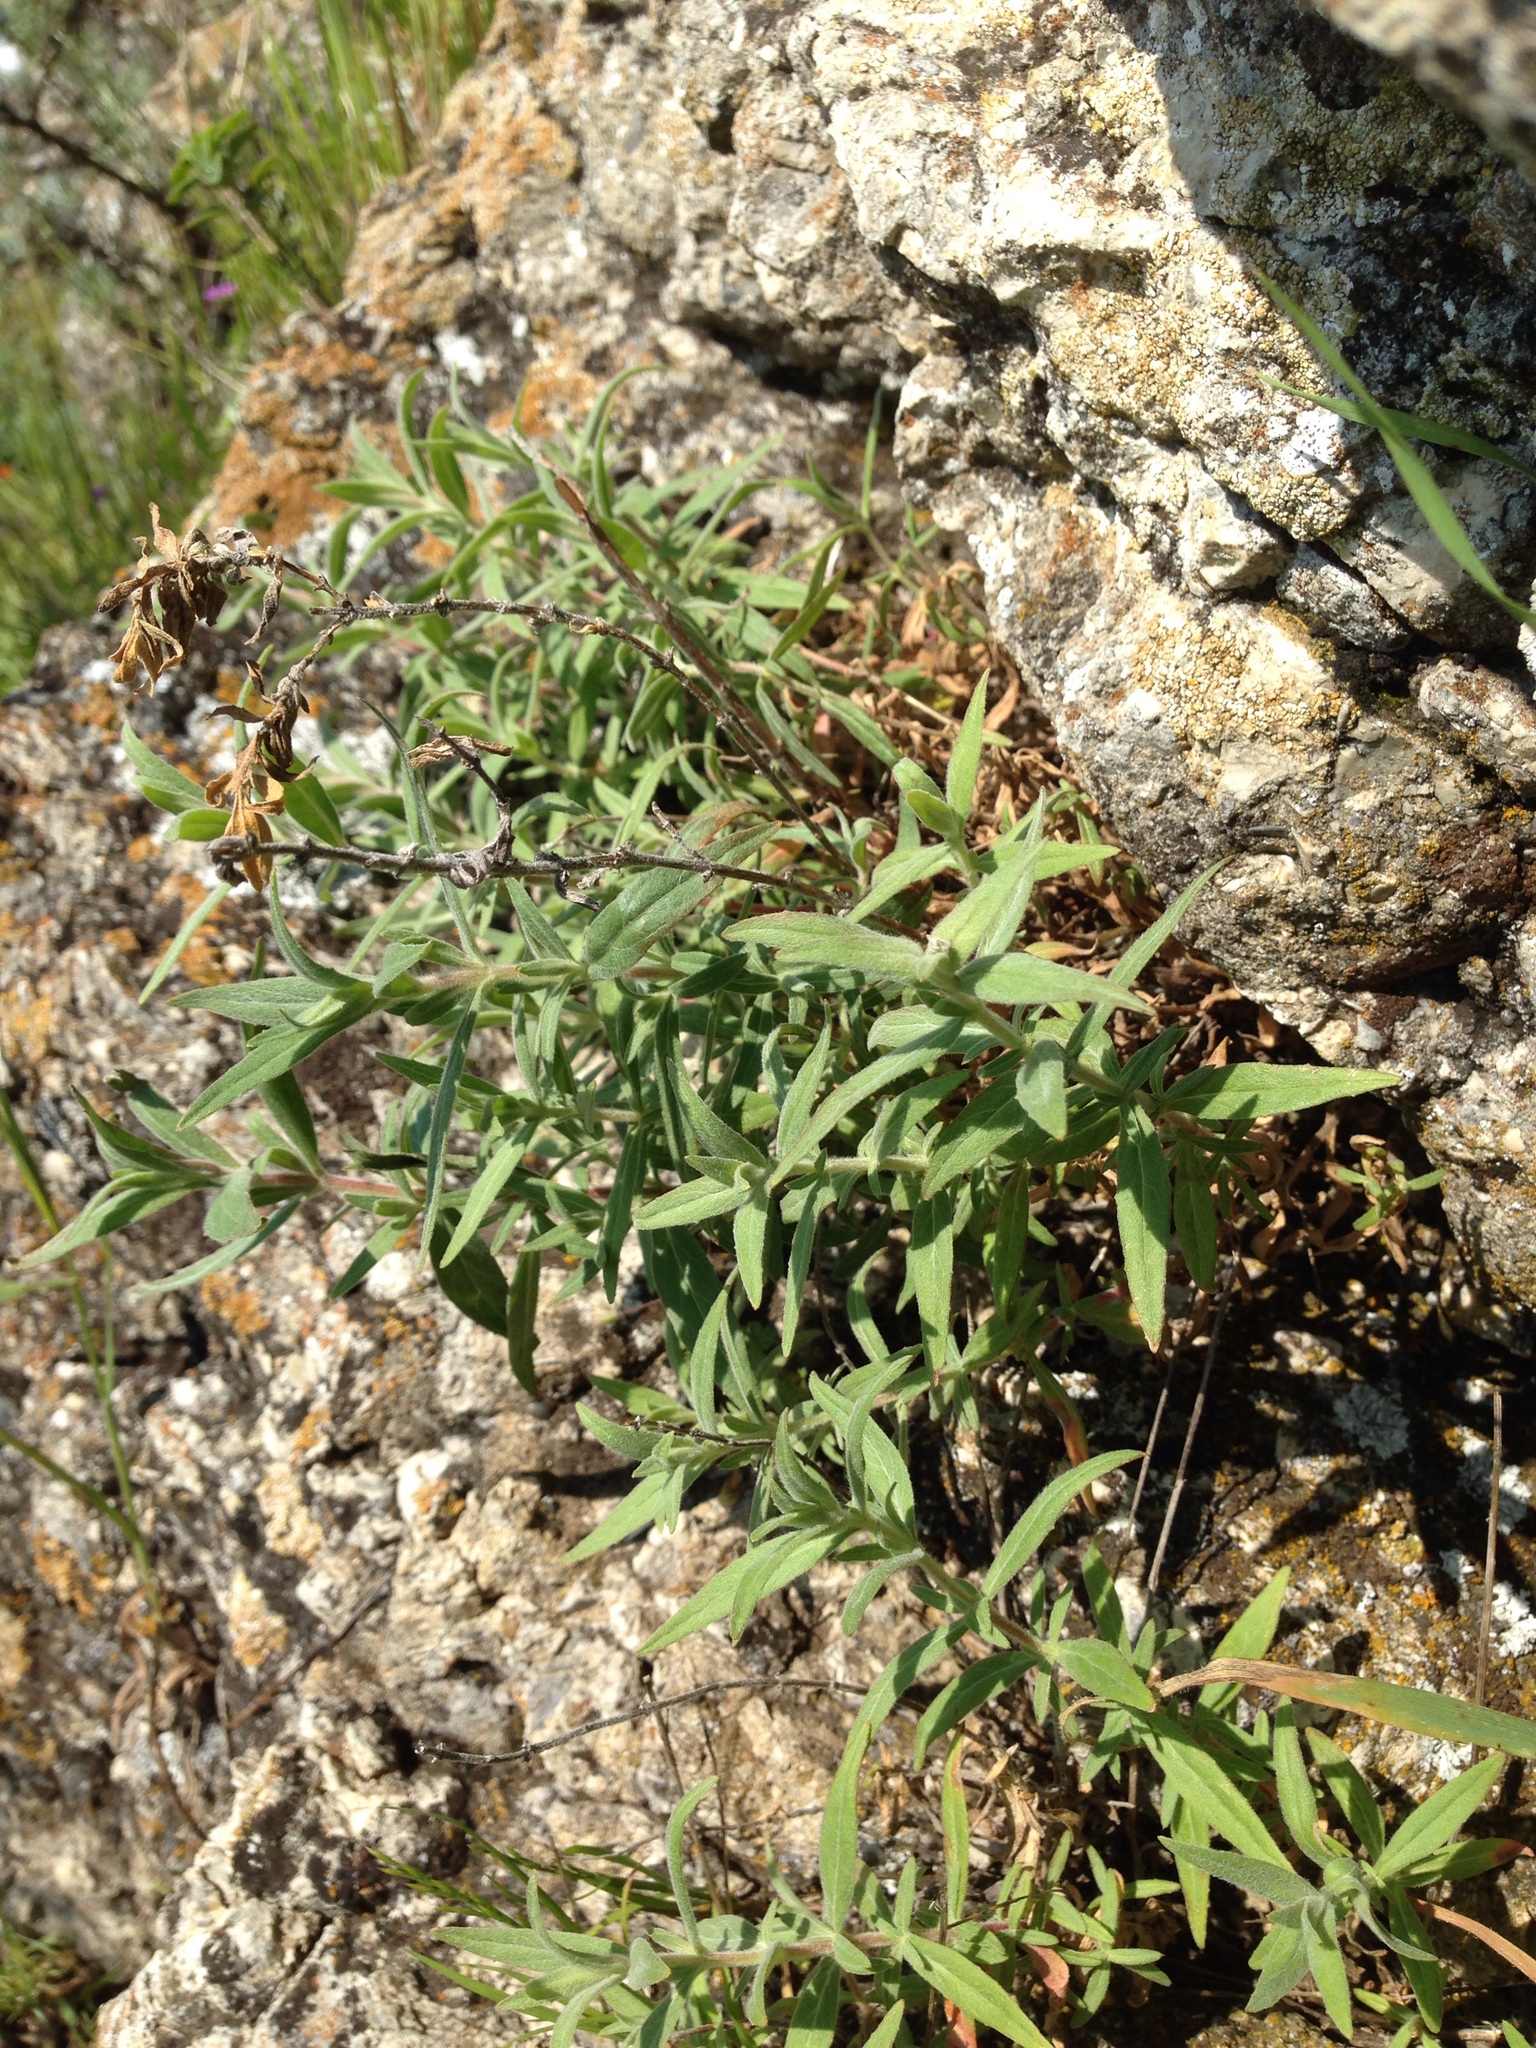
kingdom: Plantae
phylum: Tracheophyta
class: Magnoliopsida
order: Myrtales
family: Onagraceae
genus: Epilobium
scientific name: Epilobium canum
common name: California-fuchsia
